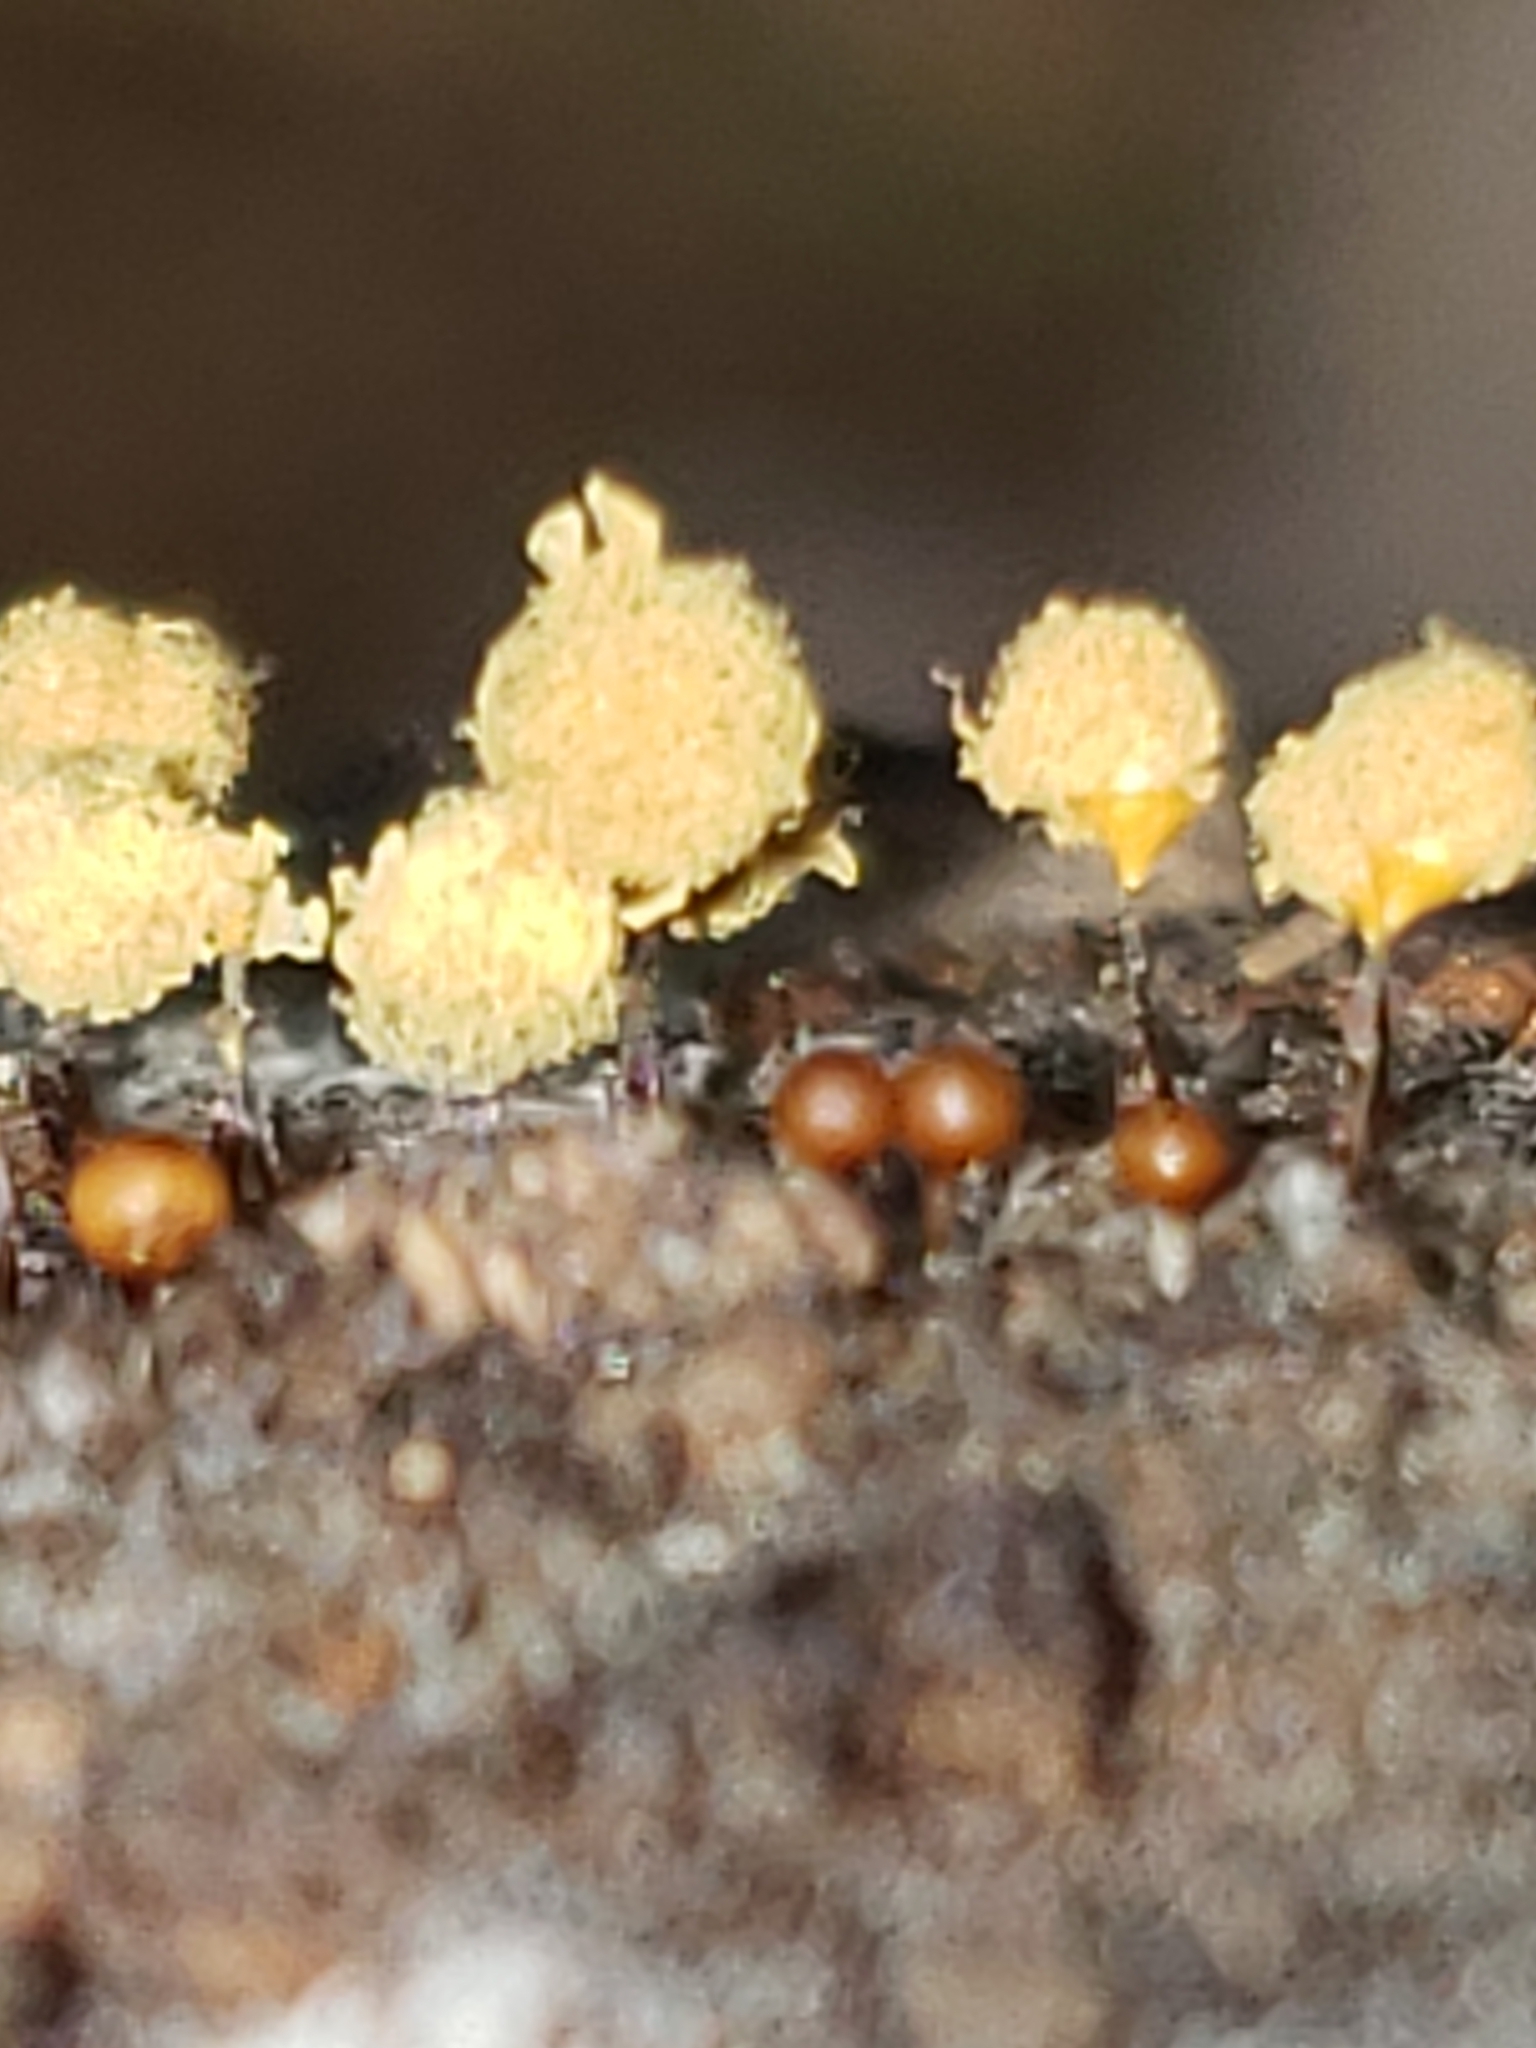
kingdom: Protozoa
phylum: Mycetozoa
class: Myxomycetes
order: Trichiales
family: Arcyriaceae
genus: Hemitrichia
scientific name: Hemitrichia calyculata
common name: Push pin slime mold
